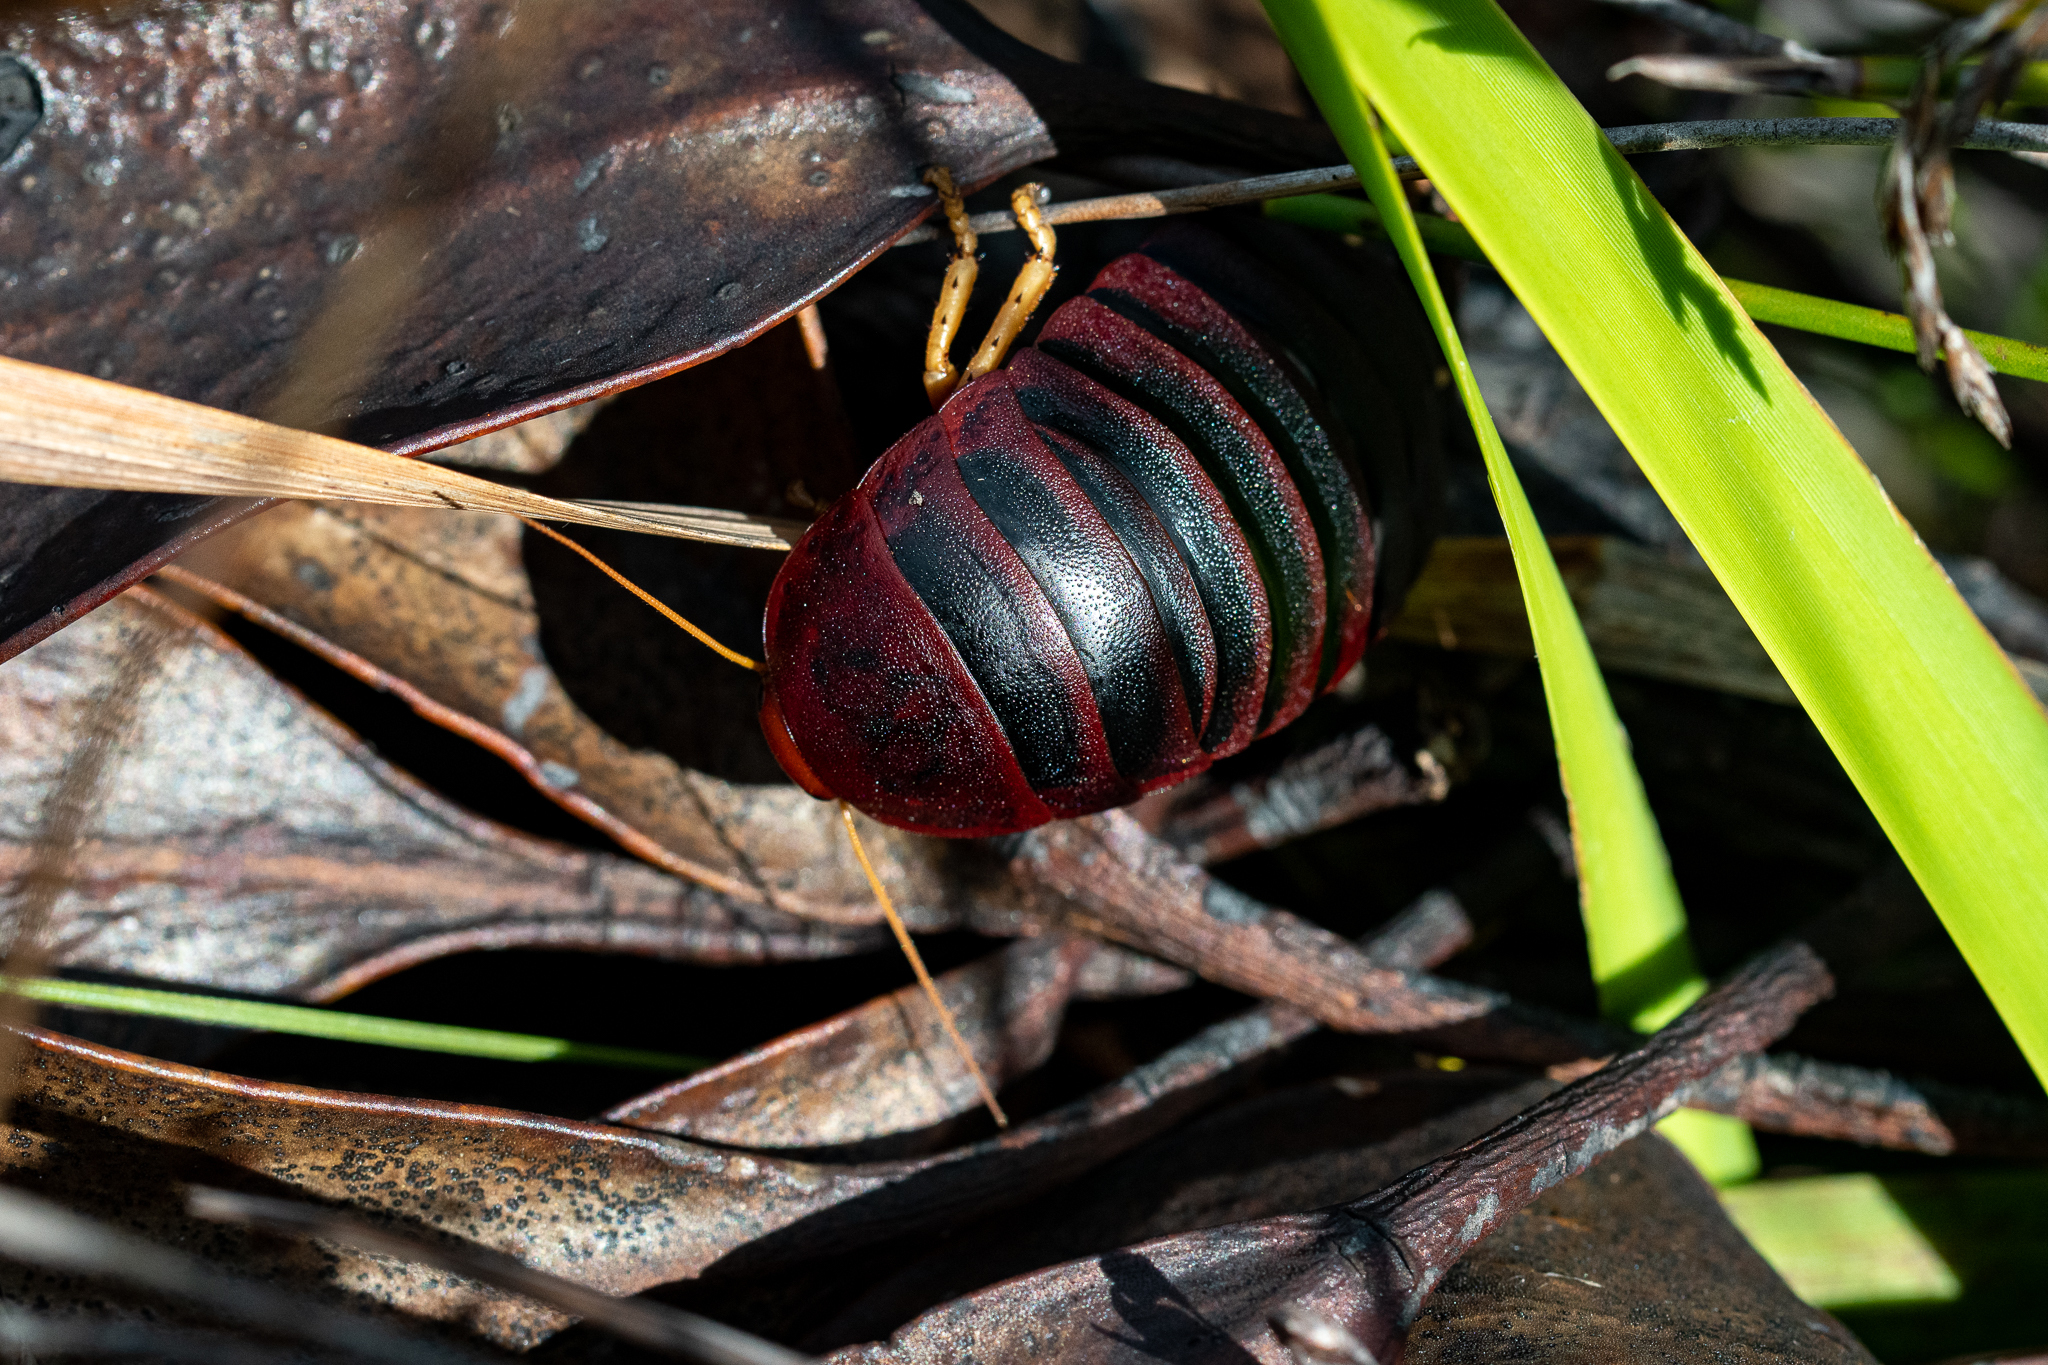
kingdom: Animalia
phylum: Arthropoda
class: Insecta
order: Blattodea
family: Blaberidae
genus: Aptera
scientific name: Aptera fusca
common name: Cape mountain cockroach
